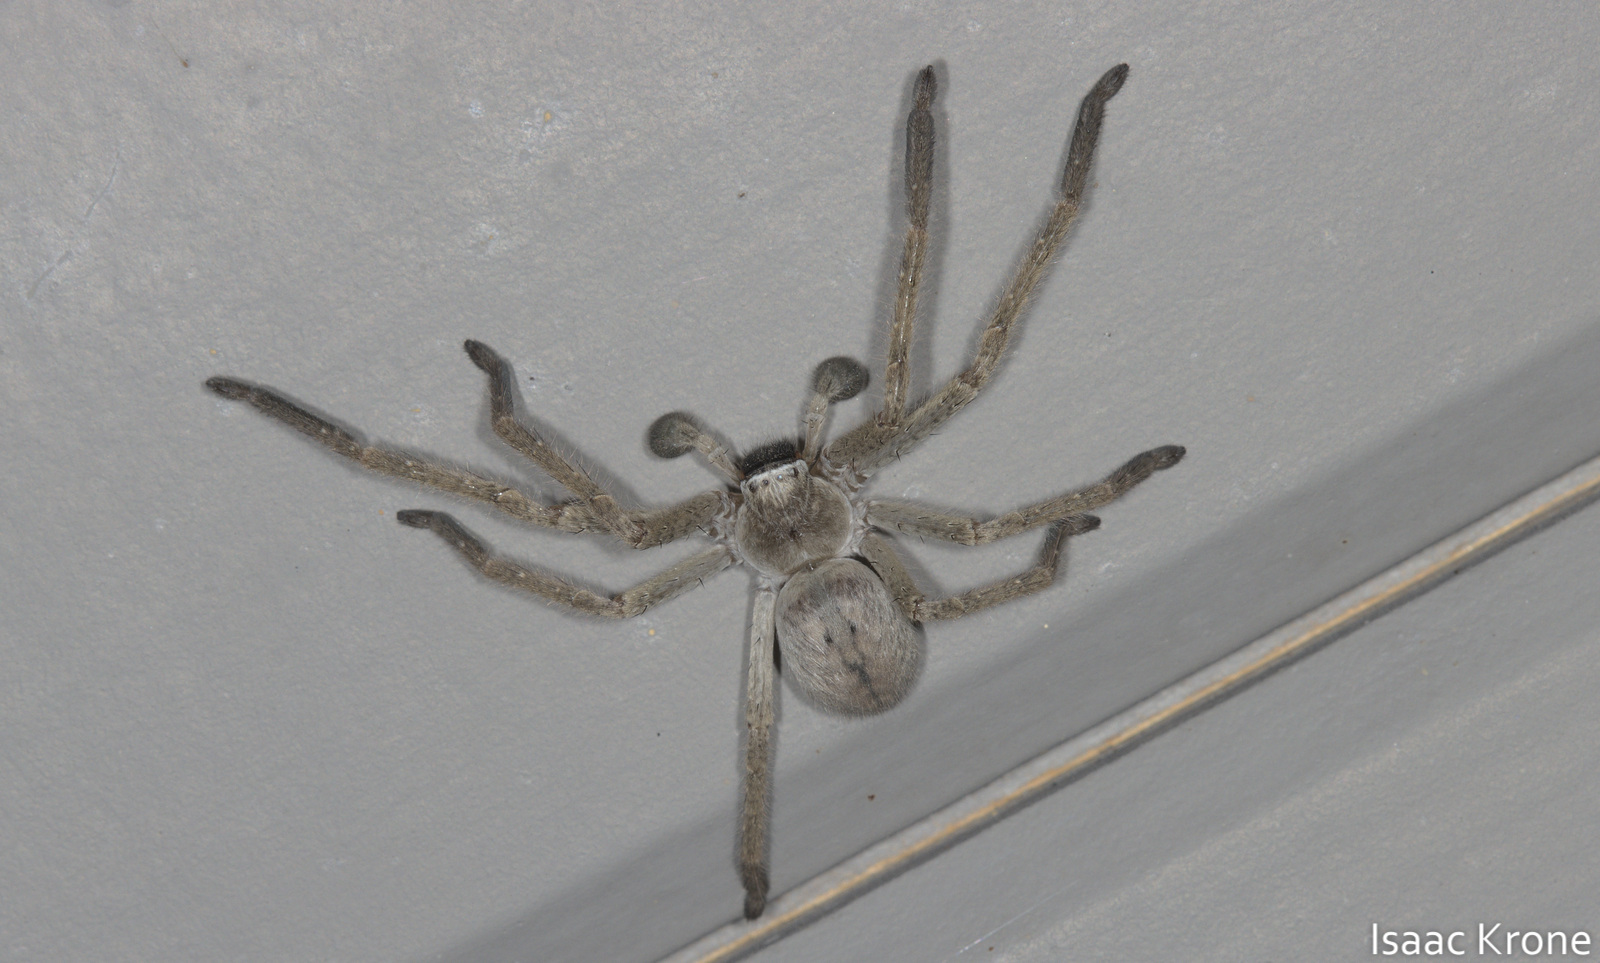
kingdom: Animalia
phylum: Arthropoda
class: Arachnida
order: Araneae
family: Sparassidae
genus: Olios
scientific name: Olios giganteus
